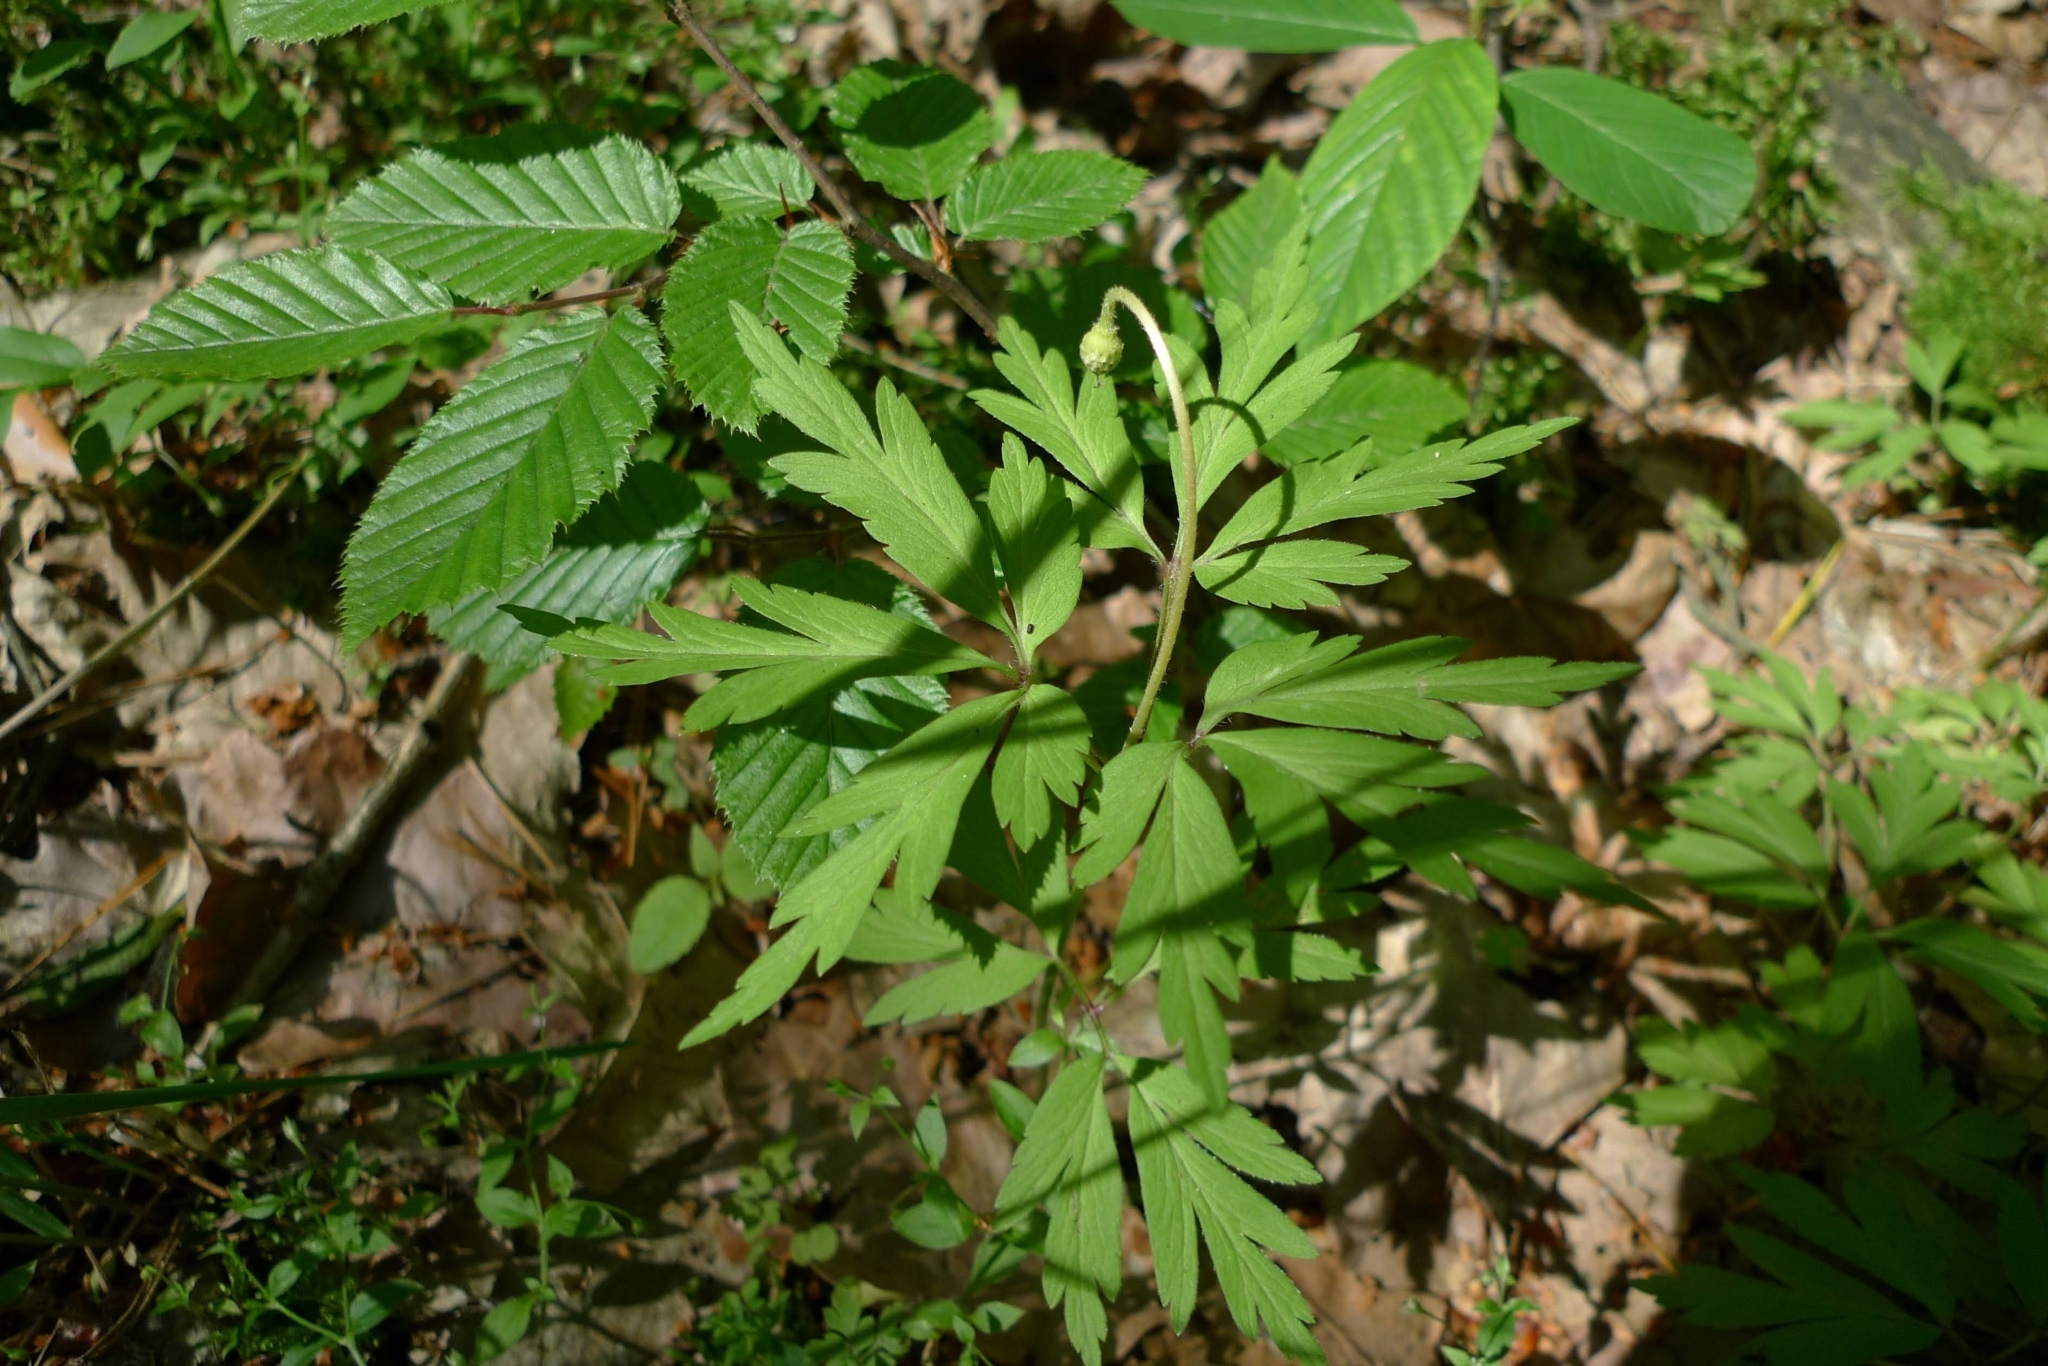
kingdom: Plantae
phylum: Tracheophyta
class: Magnoliopsida
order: Ranunculales
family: Ranunculaceae
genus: Anemone
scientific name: Anemone nemorosa
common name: Wood anemone
